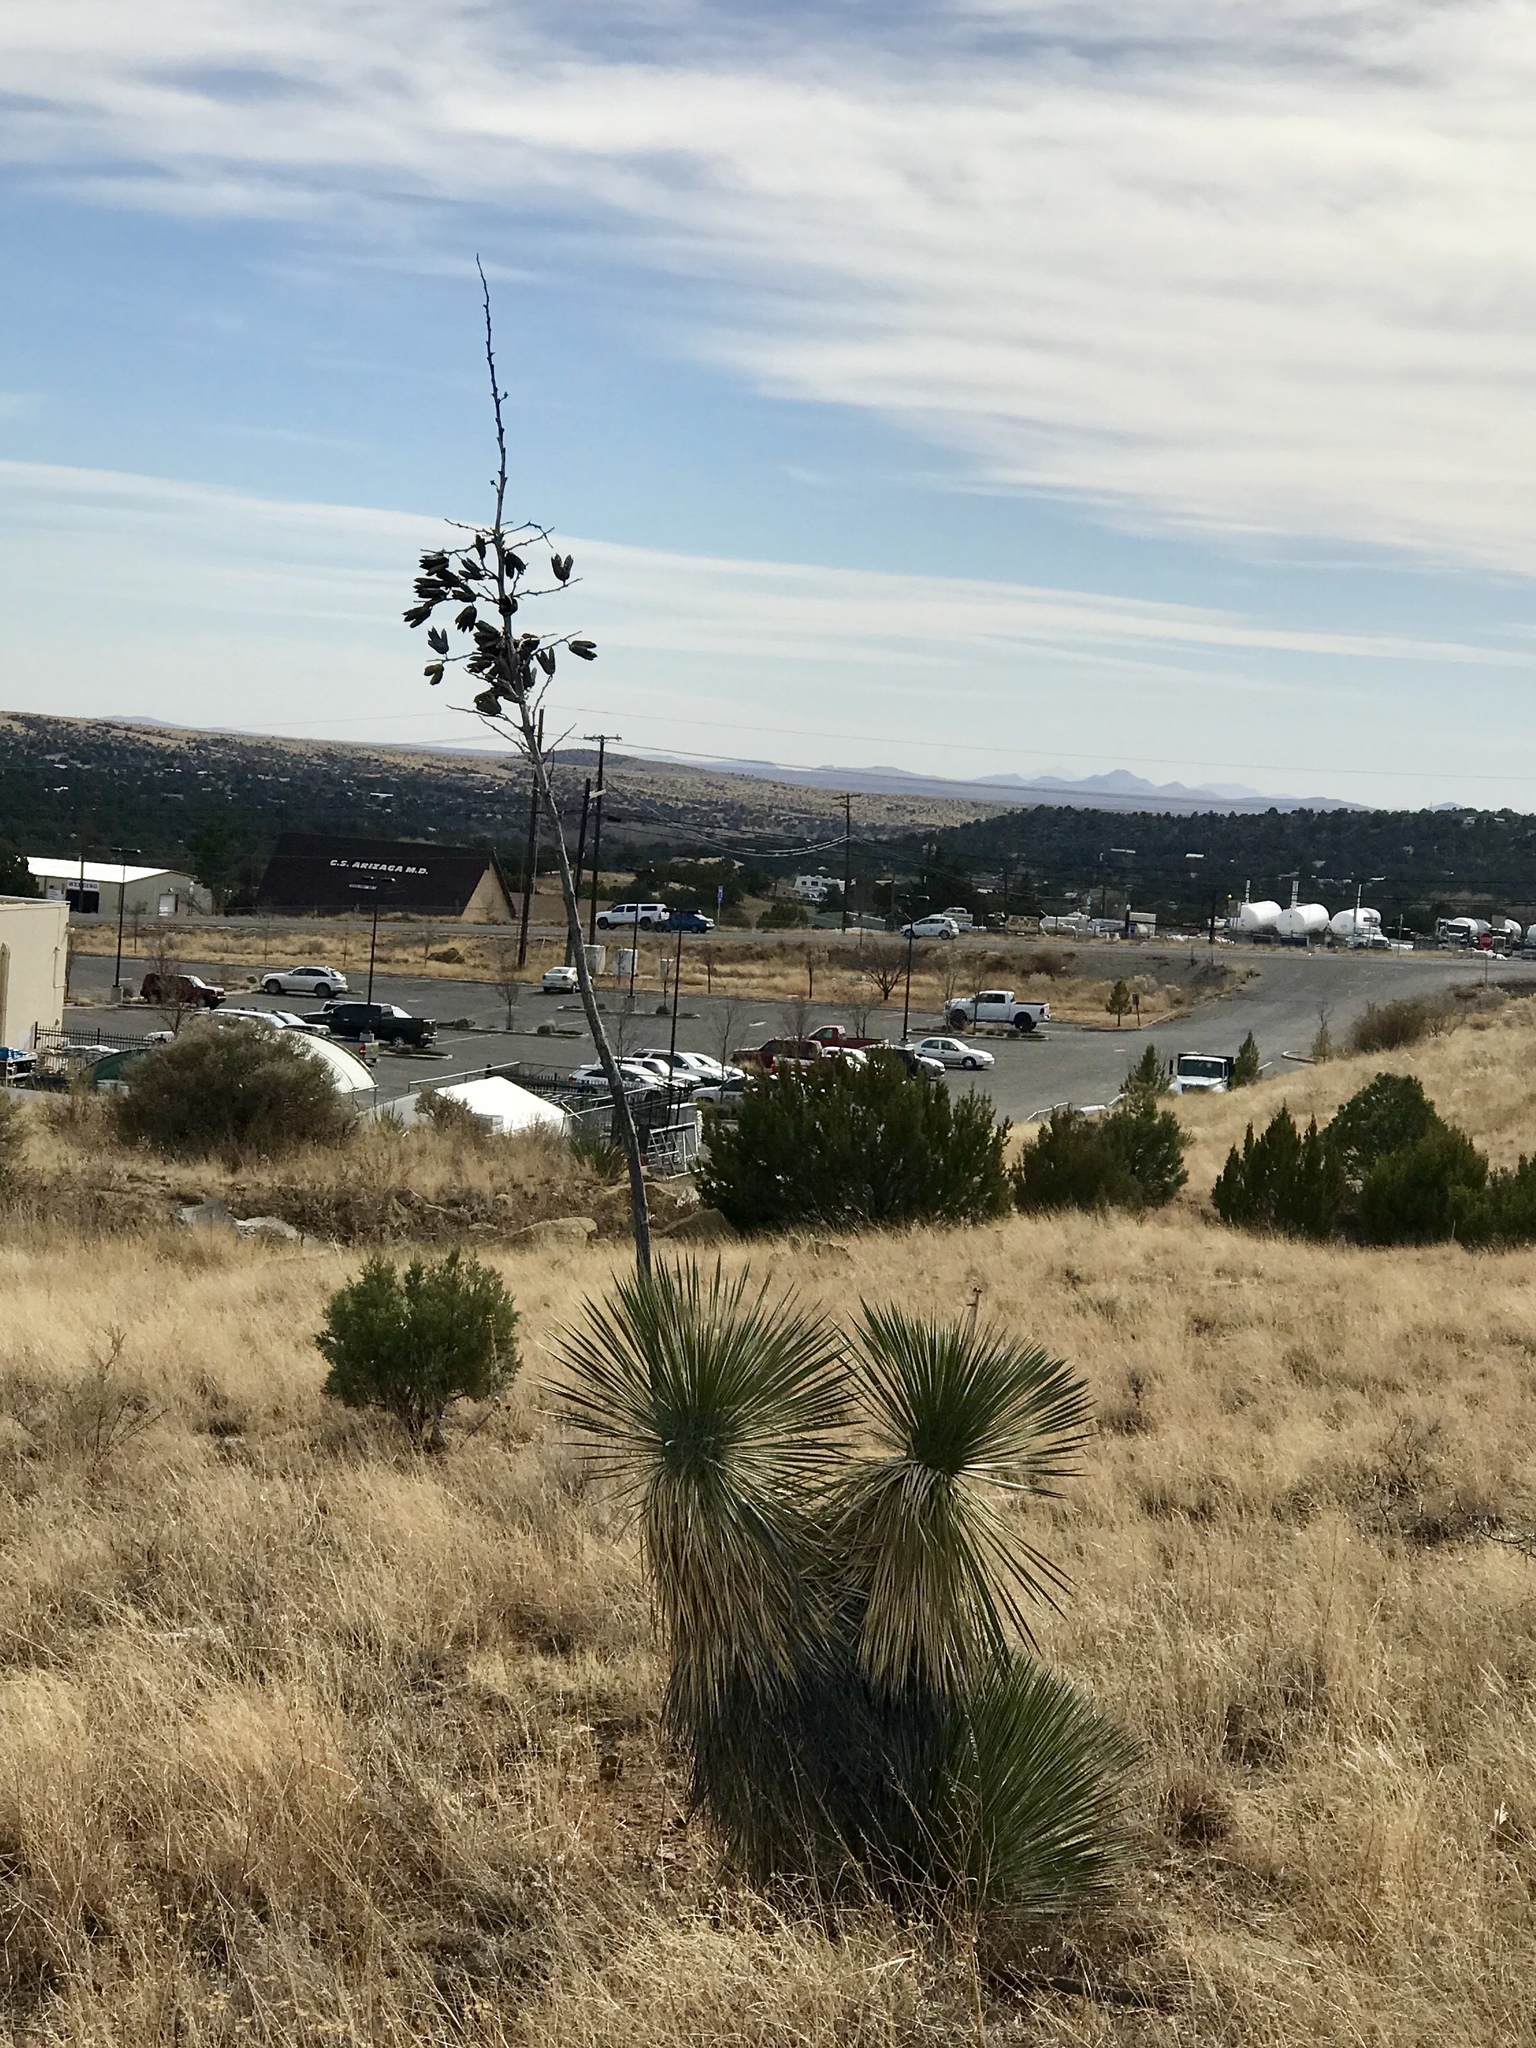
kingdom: Plantae
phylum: Tracheophyta
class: Liliopsida
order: Asparagales
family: Asparagaceae
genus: Yucca
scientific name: Yucca elata
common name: Palmella
